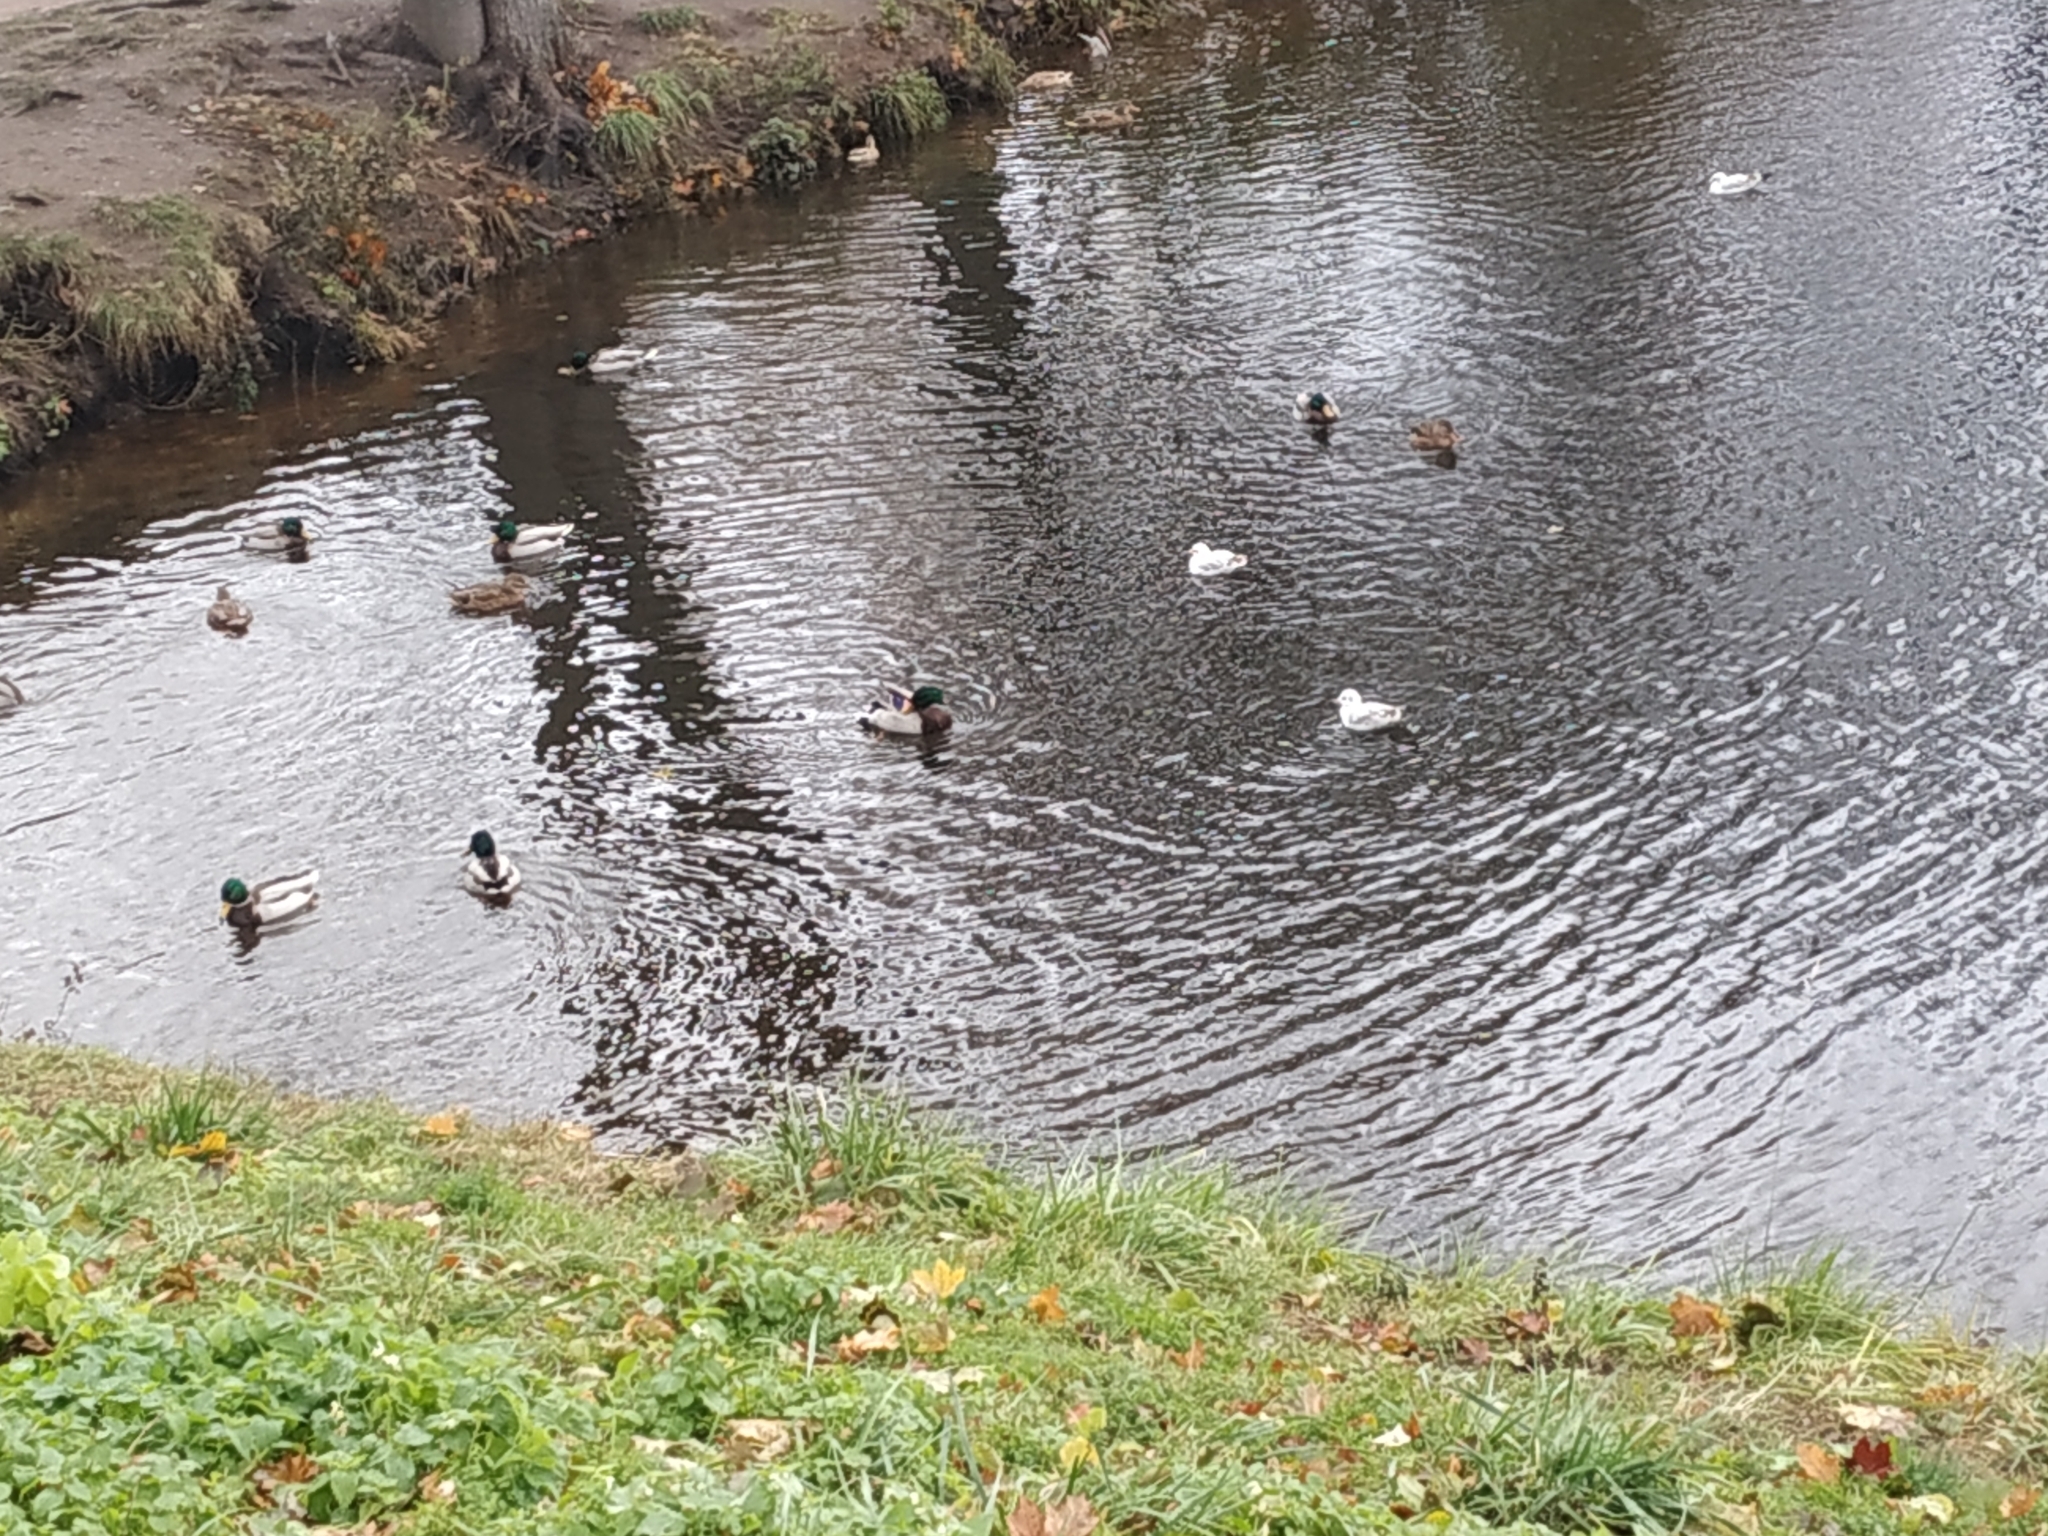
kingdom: Animalia
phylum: Chordata
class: Aves
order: Charadriiformes
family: Laridae
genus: Chroicocephalus
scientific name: Chroicocephalus ridibundus
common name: Black-headed gull
